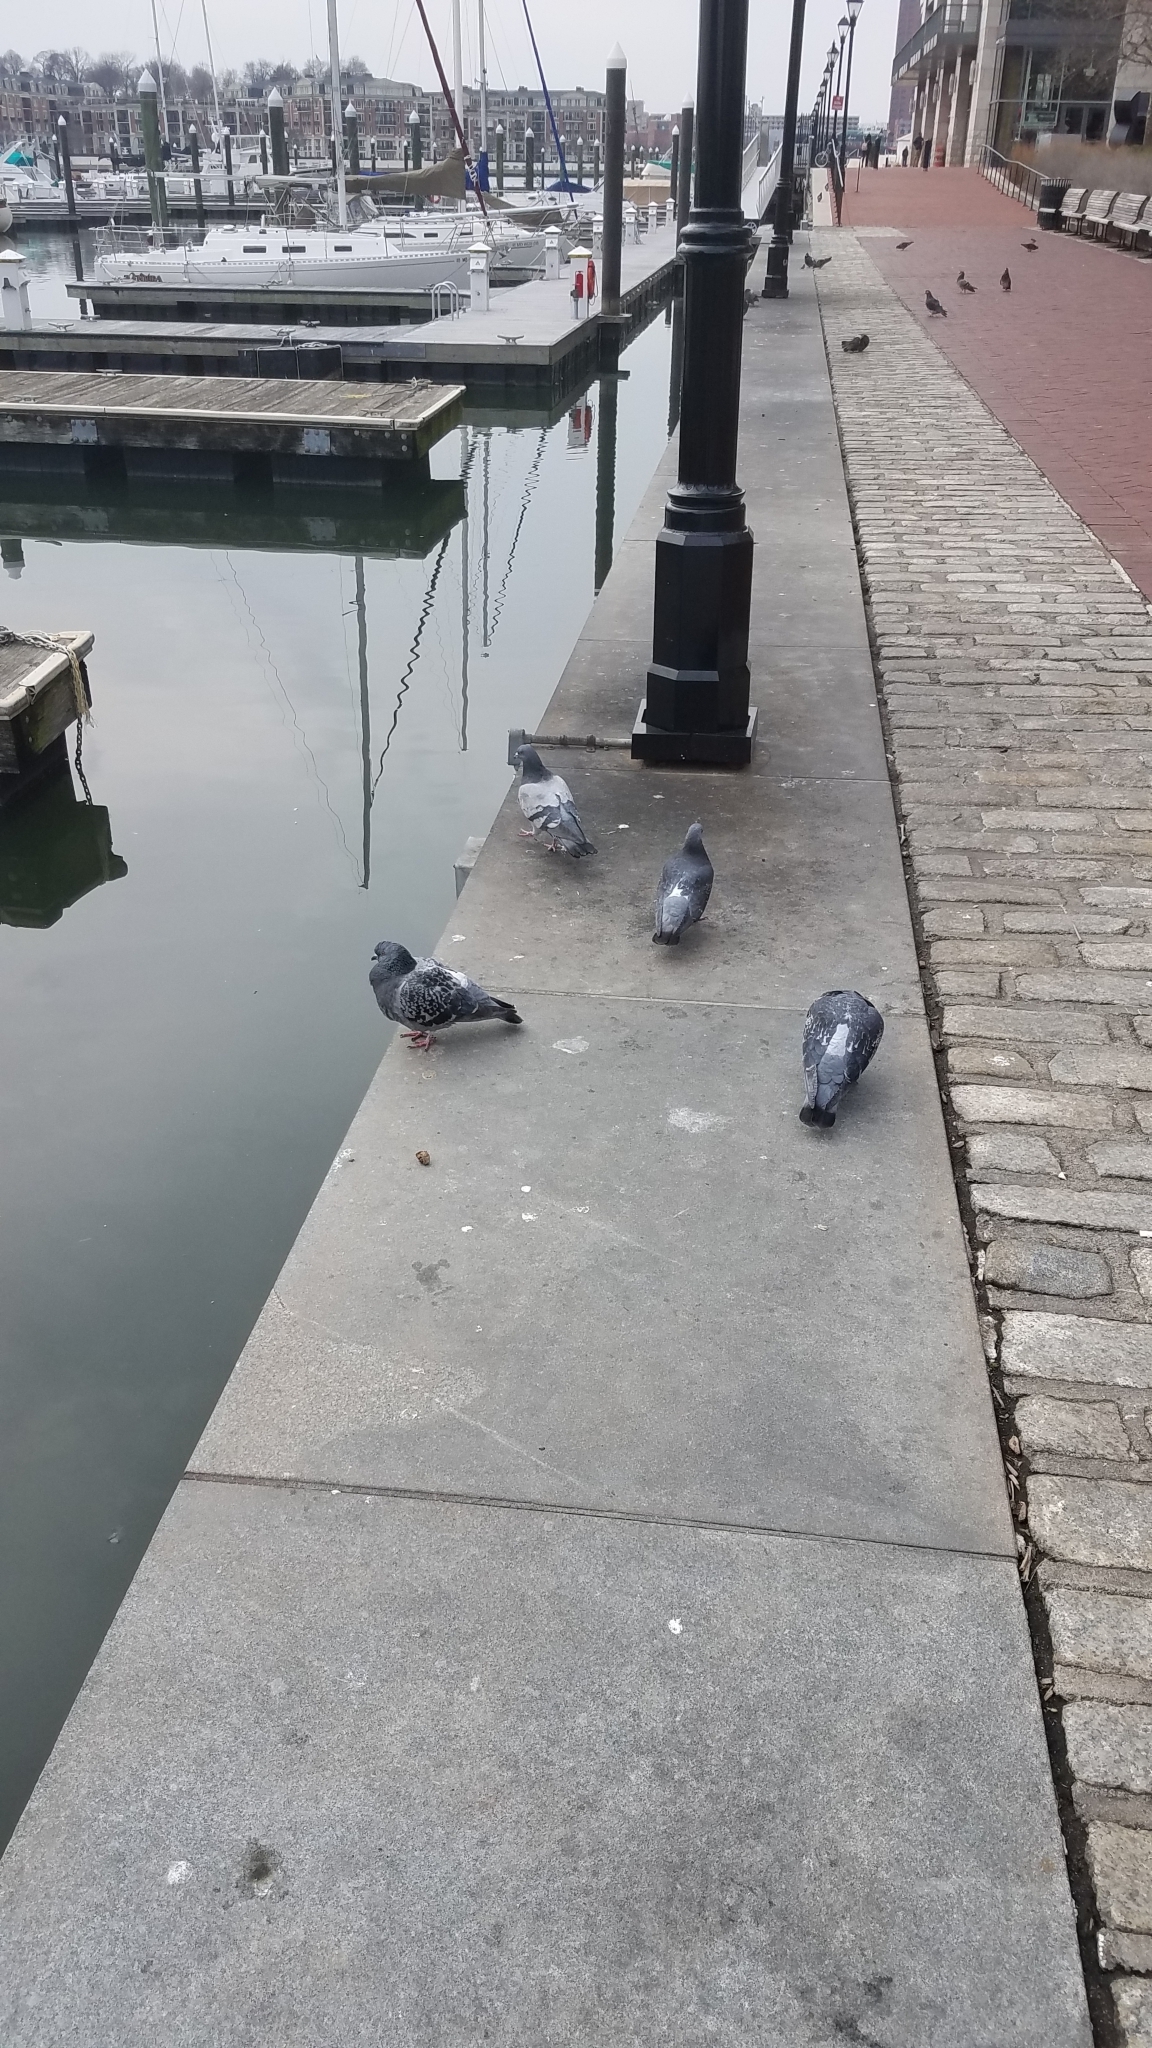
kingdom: Animalia
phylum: Chordata
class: Aves
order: Columbiformes
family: Columbidae
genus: Columba
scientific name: Columba livia
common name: Rock pigeon
